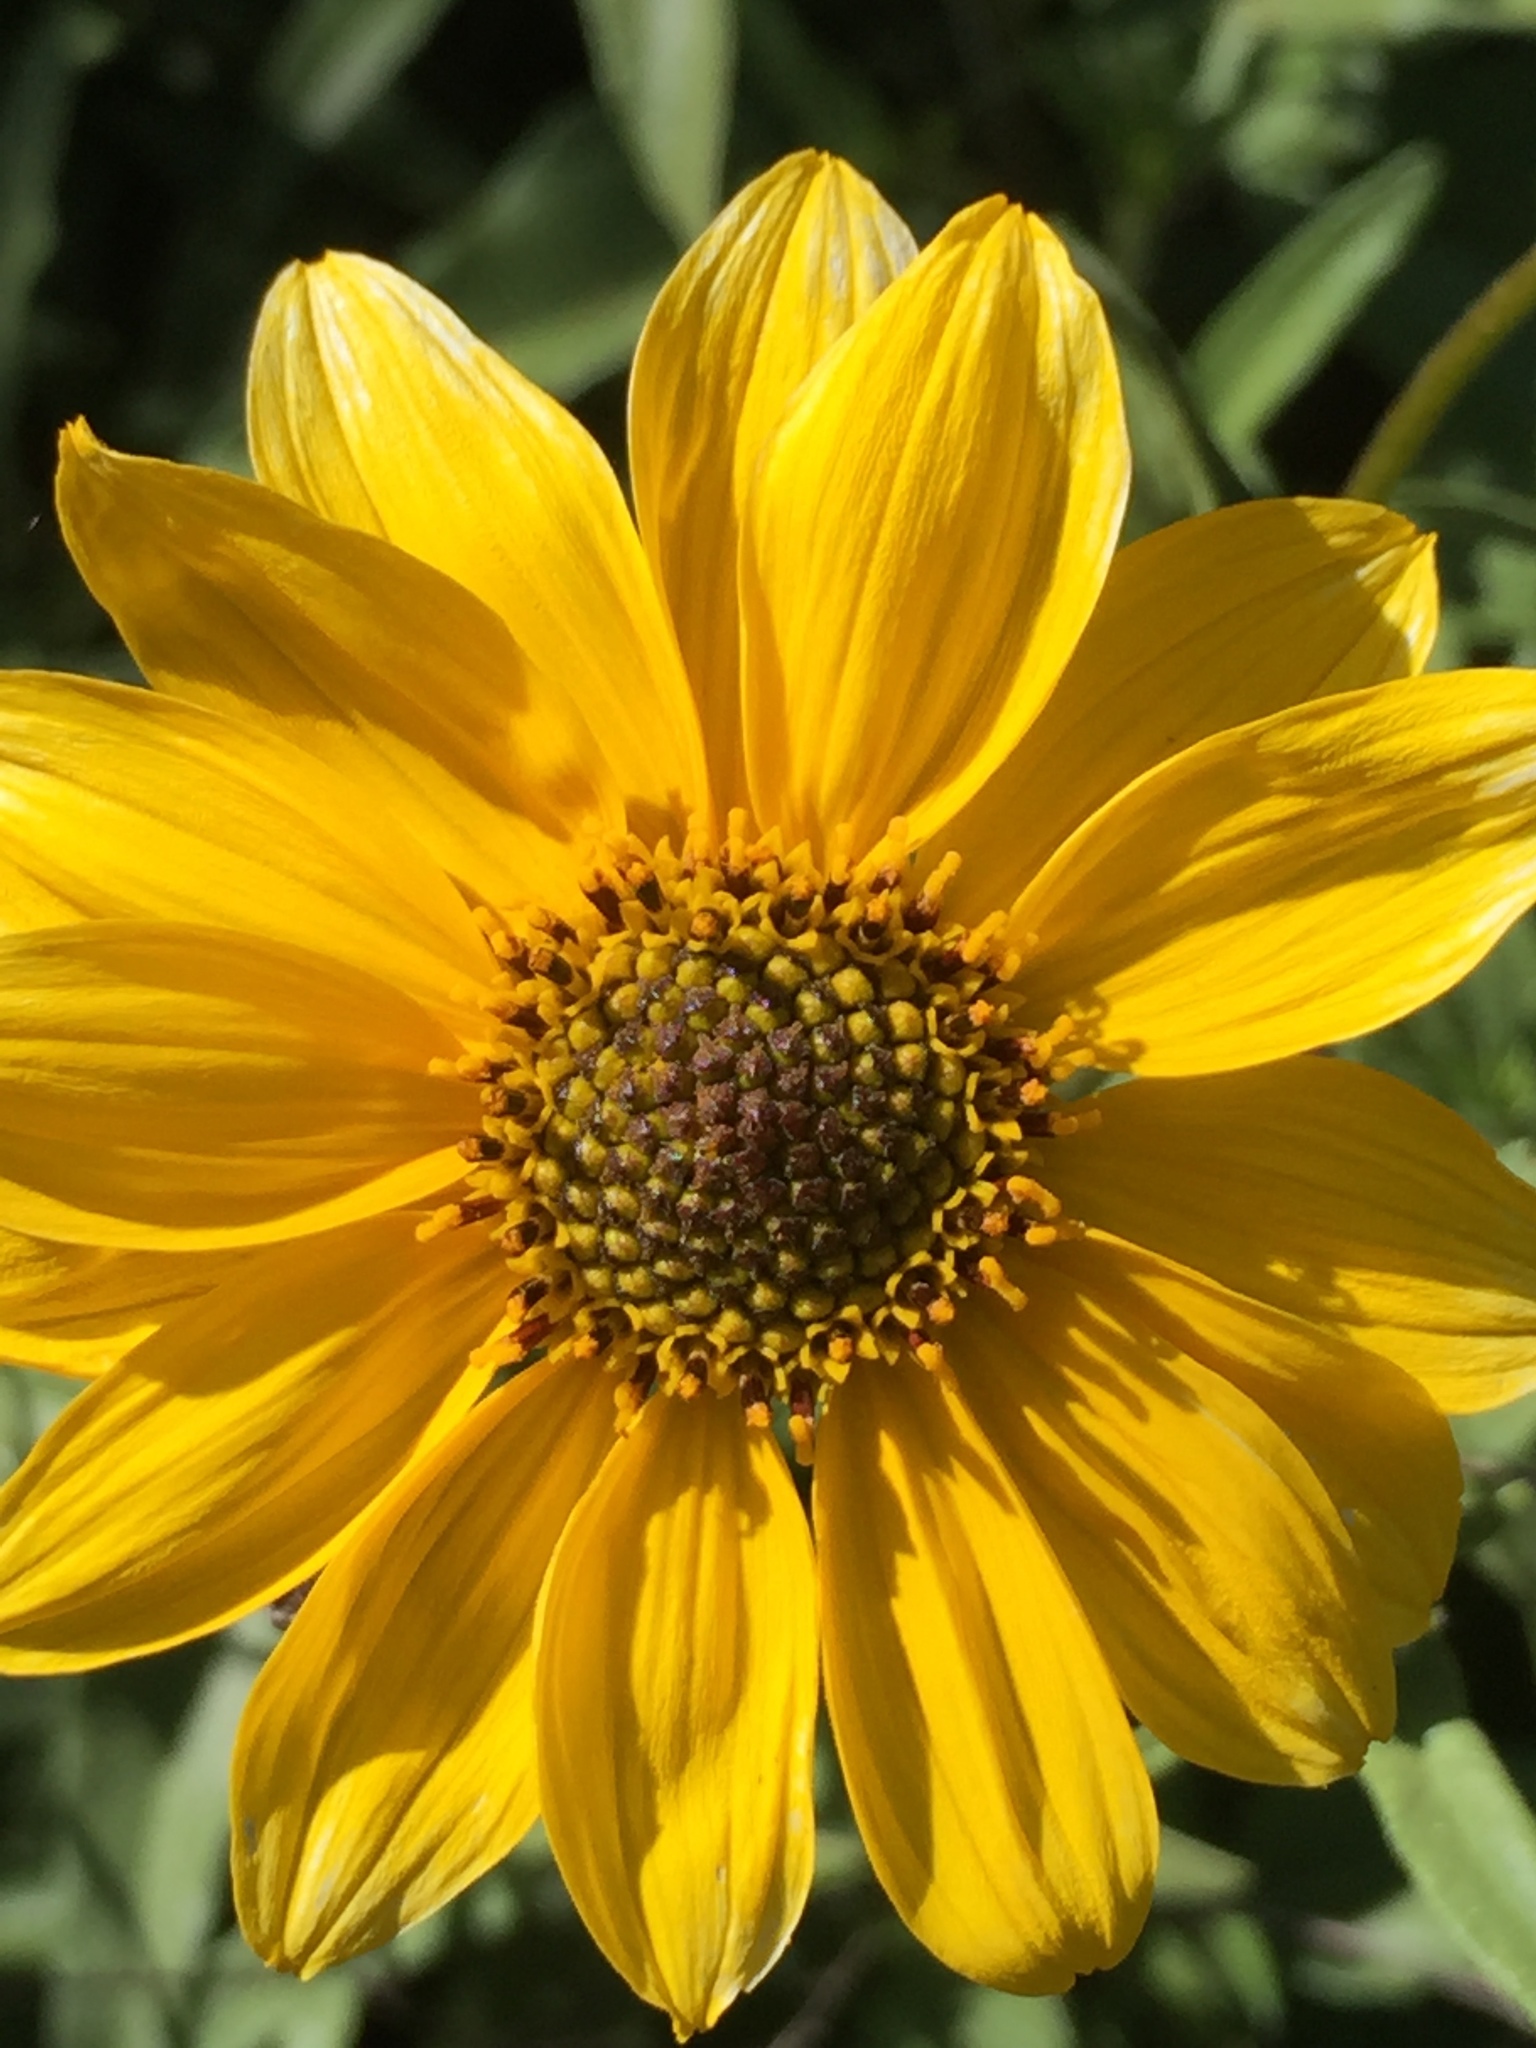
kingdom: Plantae
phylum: Tracheophyta
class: Magnoliopsida
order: Asterales
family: Asteraceae
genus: Encelia
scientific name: Encelia californica
